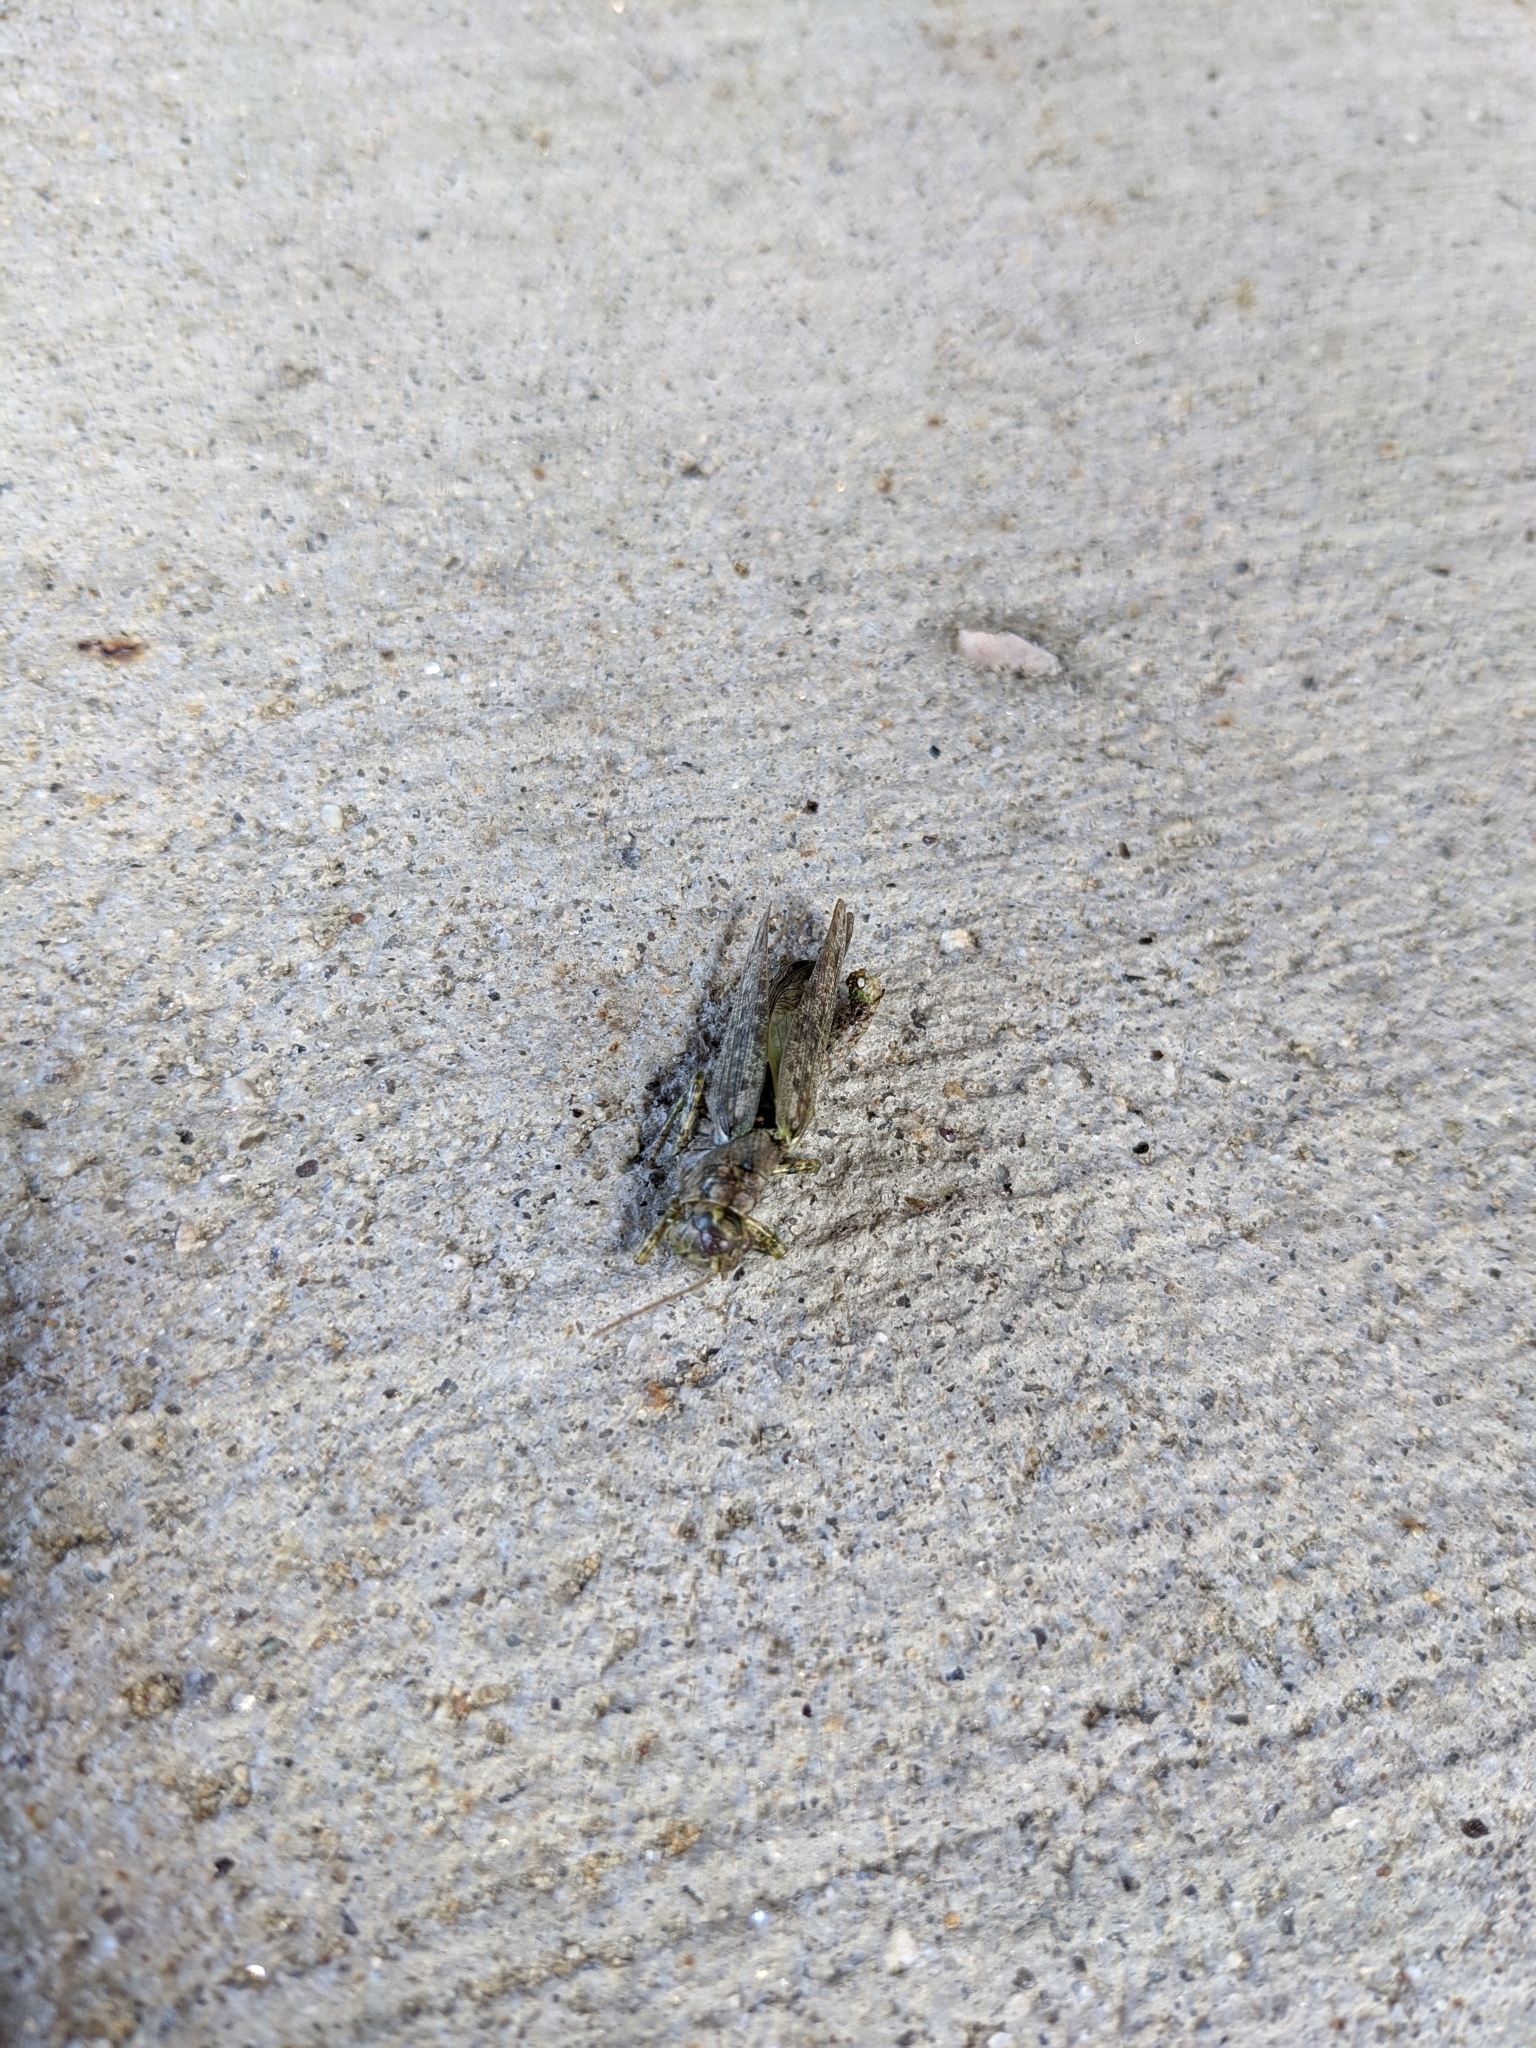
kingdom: Animalia
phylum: Arthropoda
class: Insecta
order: Orthoptera
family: Acrididae
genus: Melanoplus
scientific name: Melanoplus punctulatus
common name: Pine-tree spur-throat grasshopper
